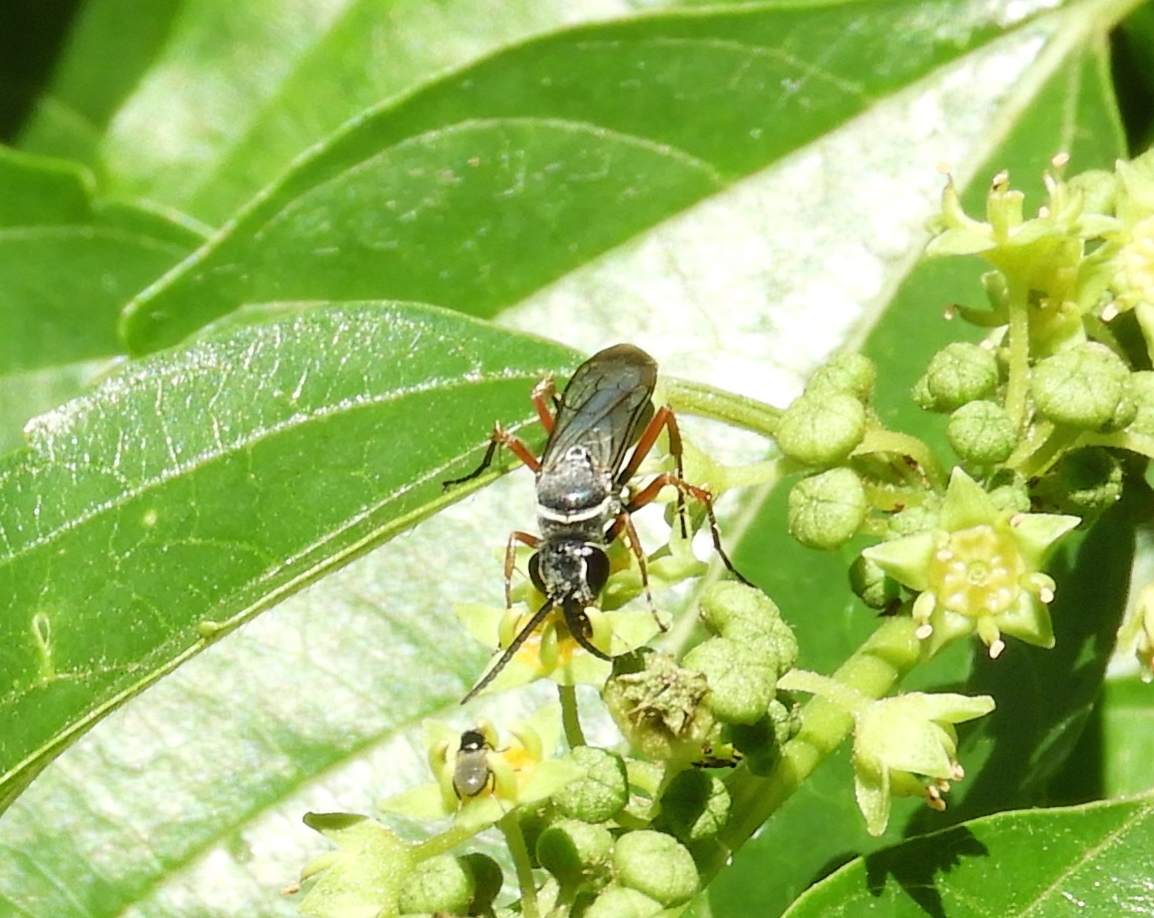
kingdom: Animalia
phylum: Arthropoda
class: Insecta
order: Hymenoptera
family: Pompilidae
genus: Episyron
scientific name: Episyron conterminus
